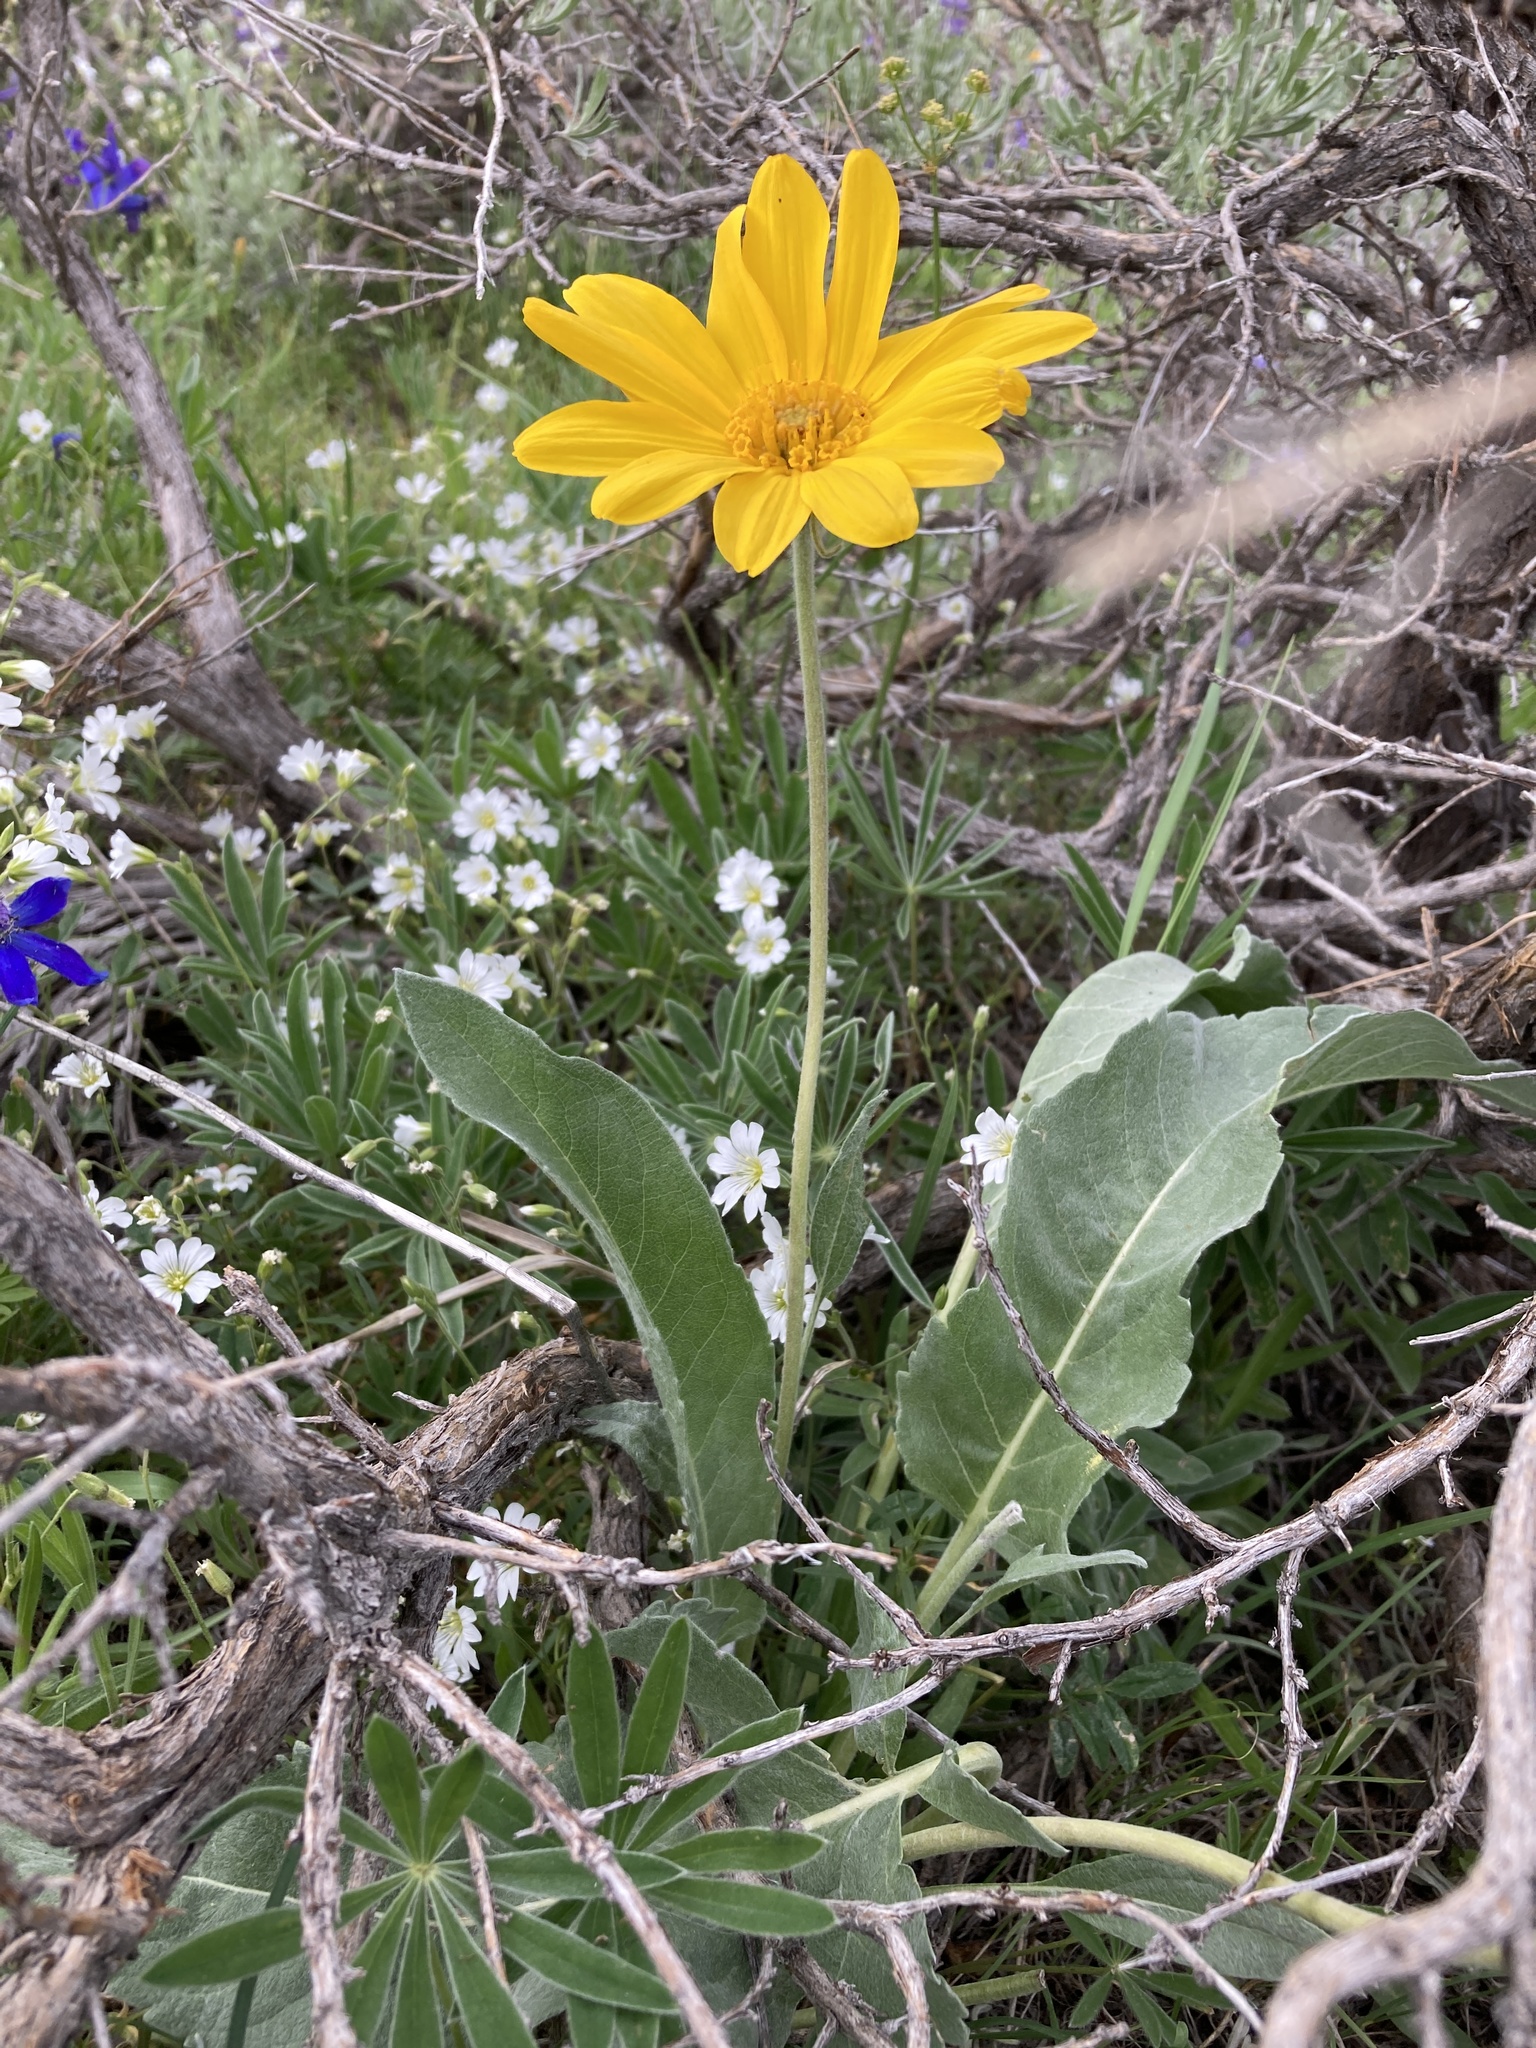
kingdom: Plantae
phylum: Tracheophyta
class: Magnoliopsida
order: Asterales
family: Asteraceae
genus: Wyethia
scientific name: Wyethia sagittata
